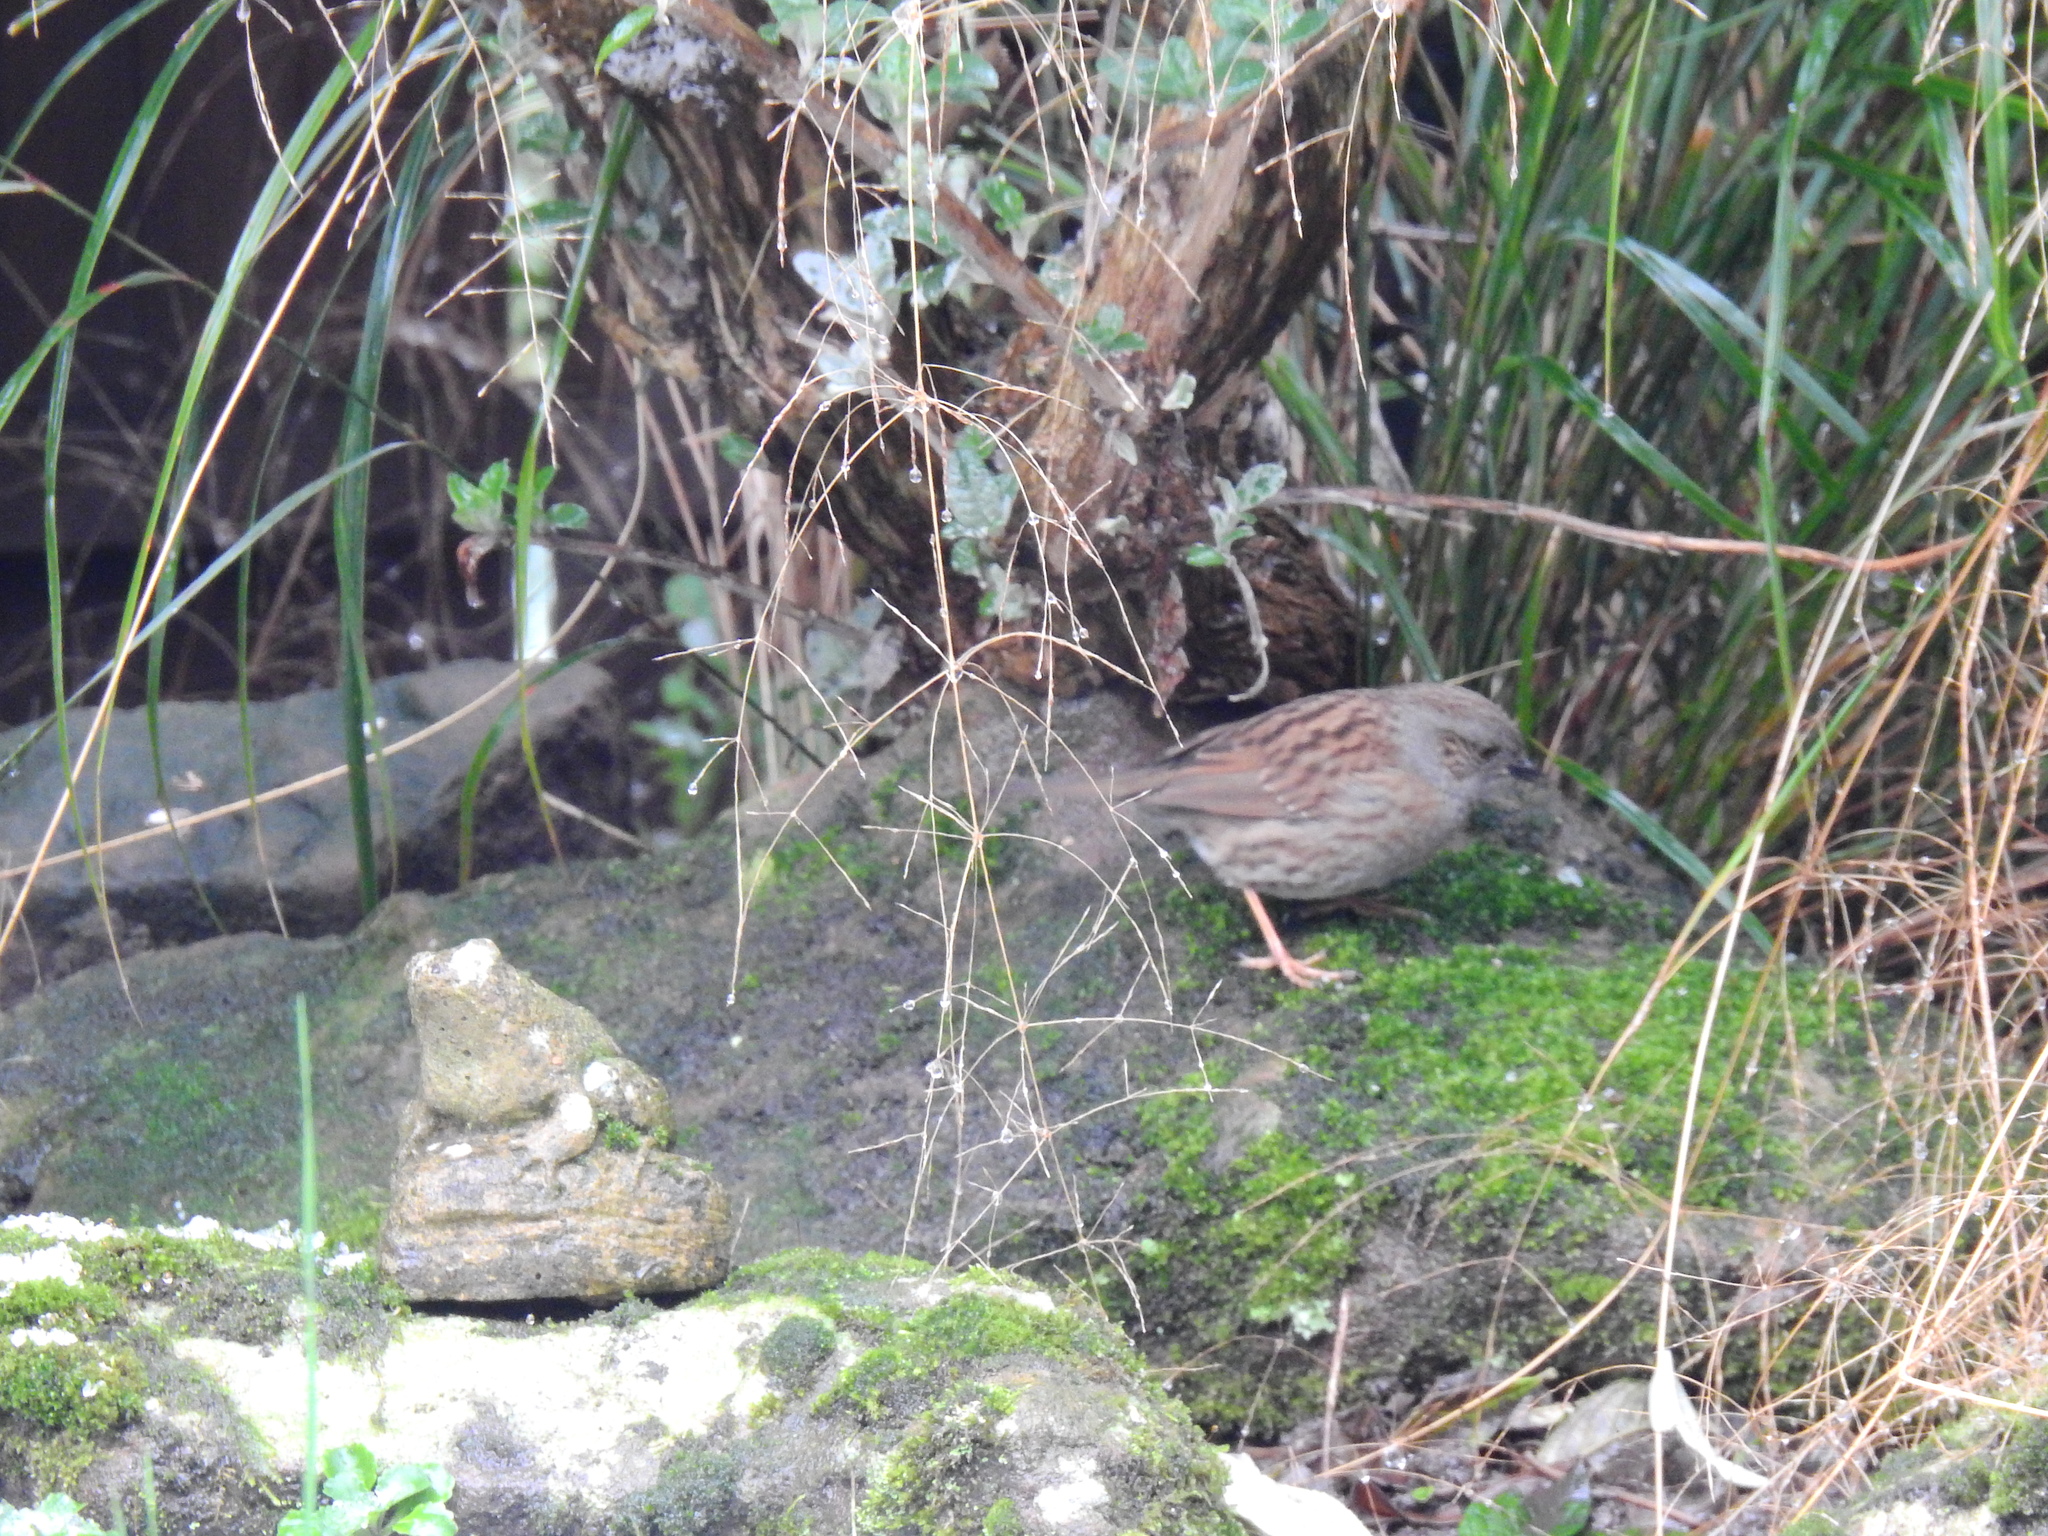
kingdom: Animalia
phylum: Chordata
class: Aves
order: Passeriformes
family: Prunellidae
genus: Prunella
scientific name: Prunella modularis
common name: Dunnock
